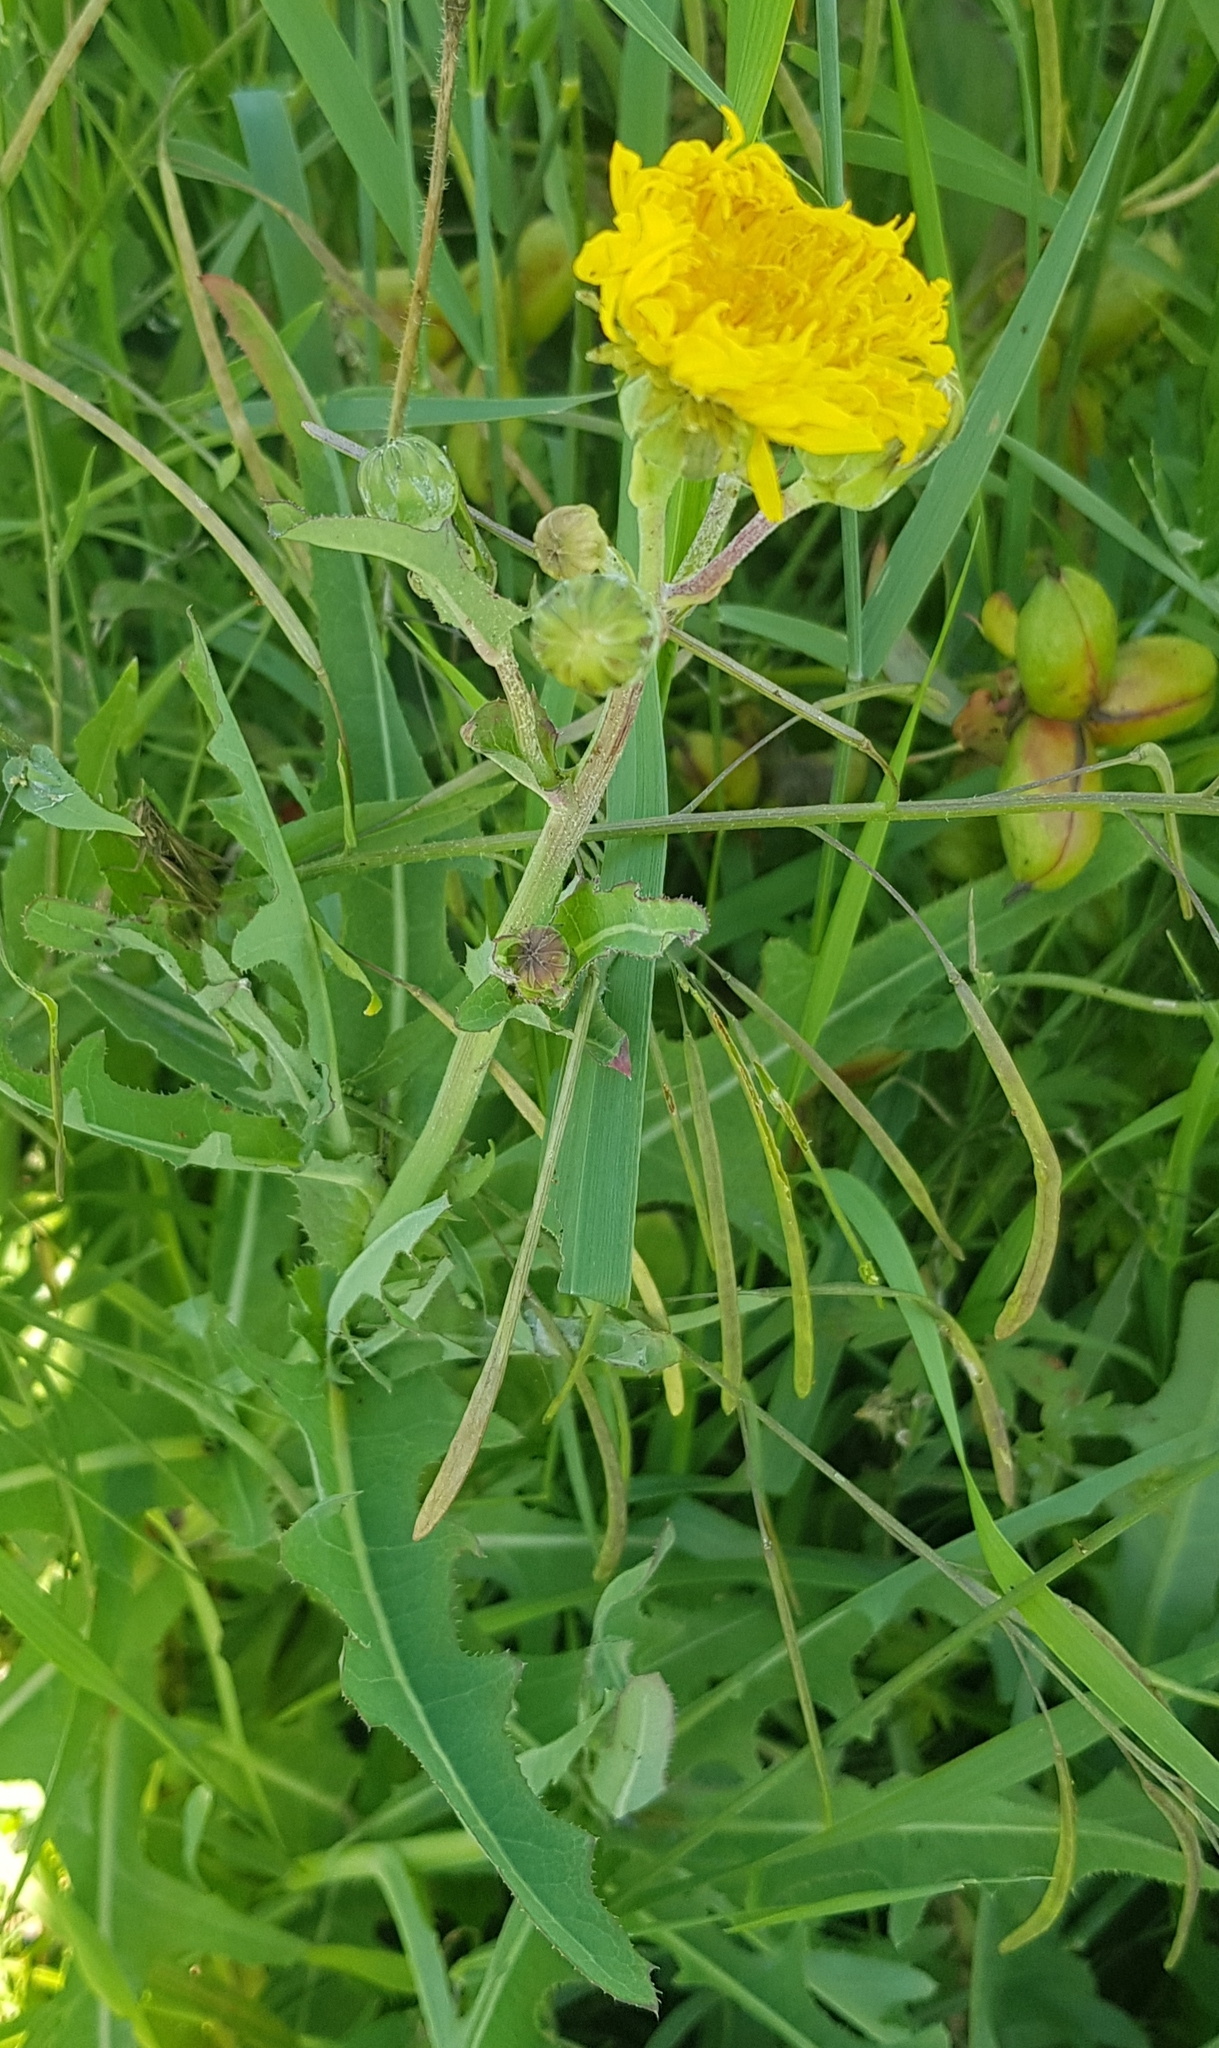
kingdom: Plantae
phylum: Tracheophyta
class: Magnoliopsida
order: Asterales
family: Asteraceae
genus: Pentanema
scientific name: Pentanema britannicum
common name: British elecampane
